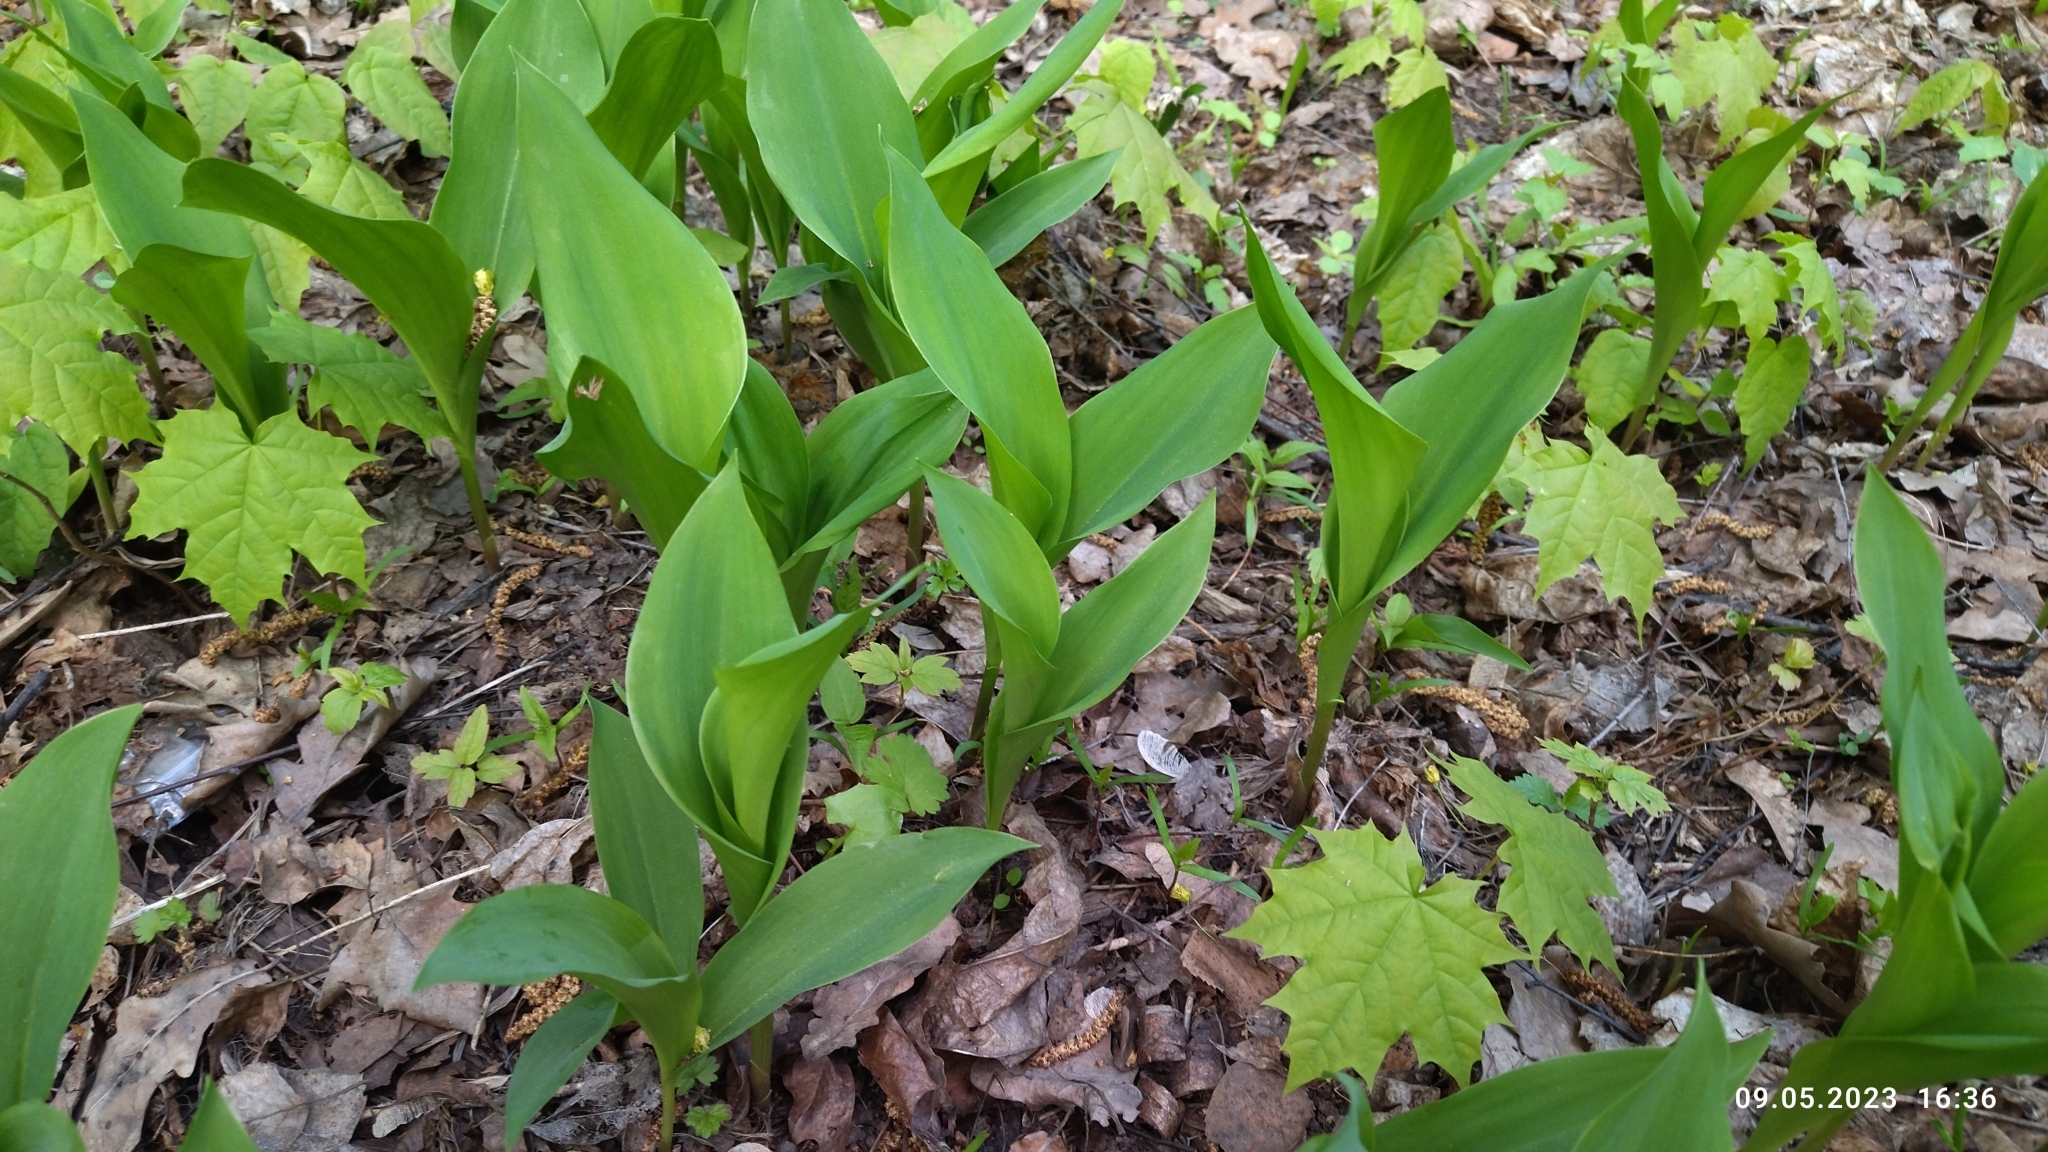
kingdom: Plantae
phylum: Tracheophyta
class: Liliopsida
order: Asparagales
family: Asparagaceae
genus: Convallaria
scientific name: Convallaria majalis
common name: Lily-of-the-valley
